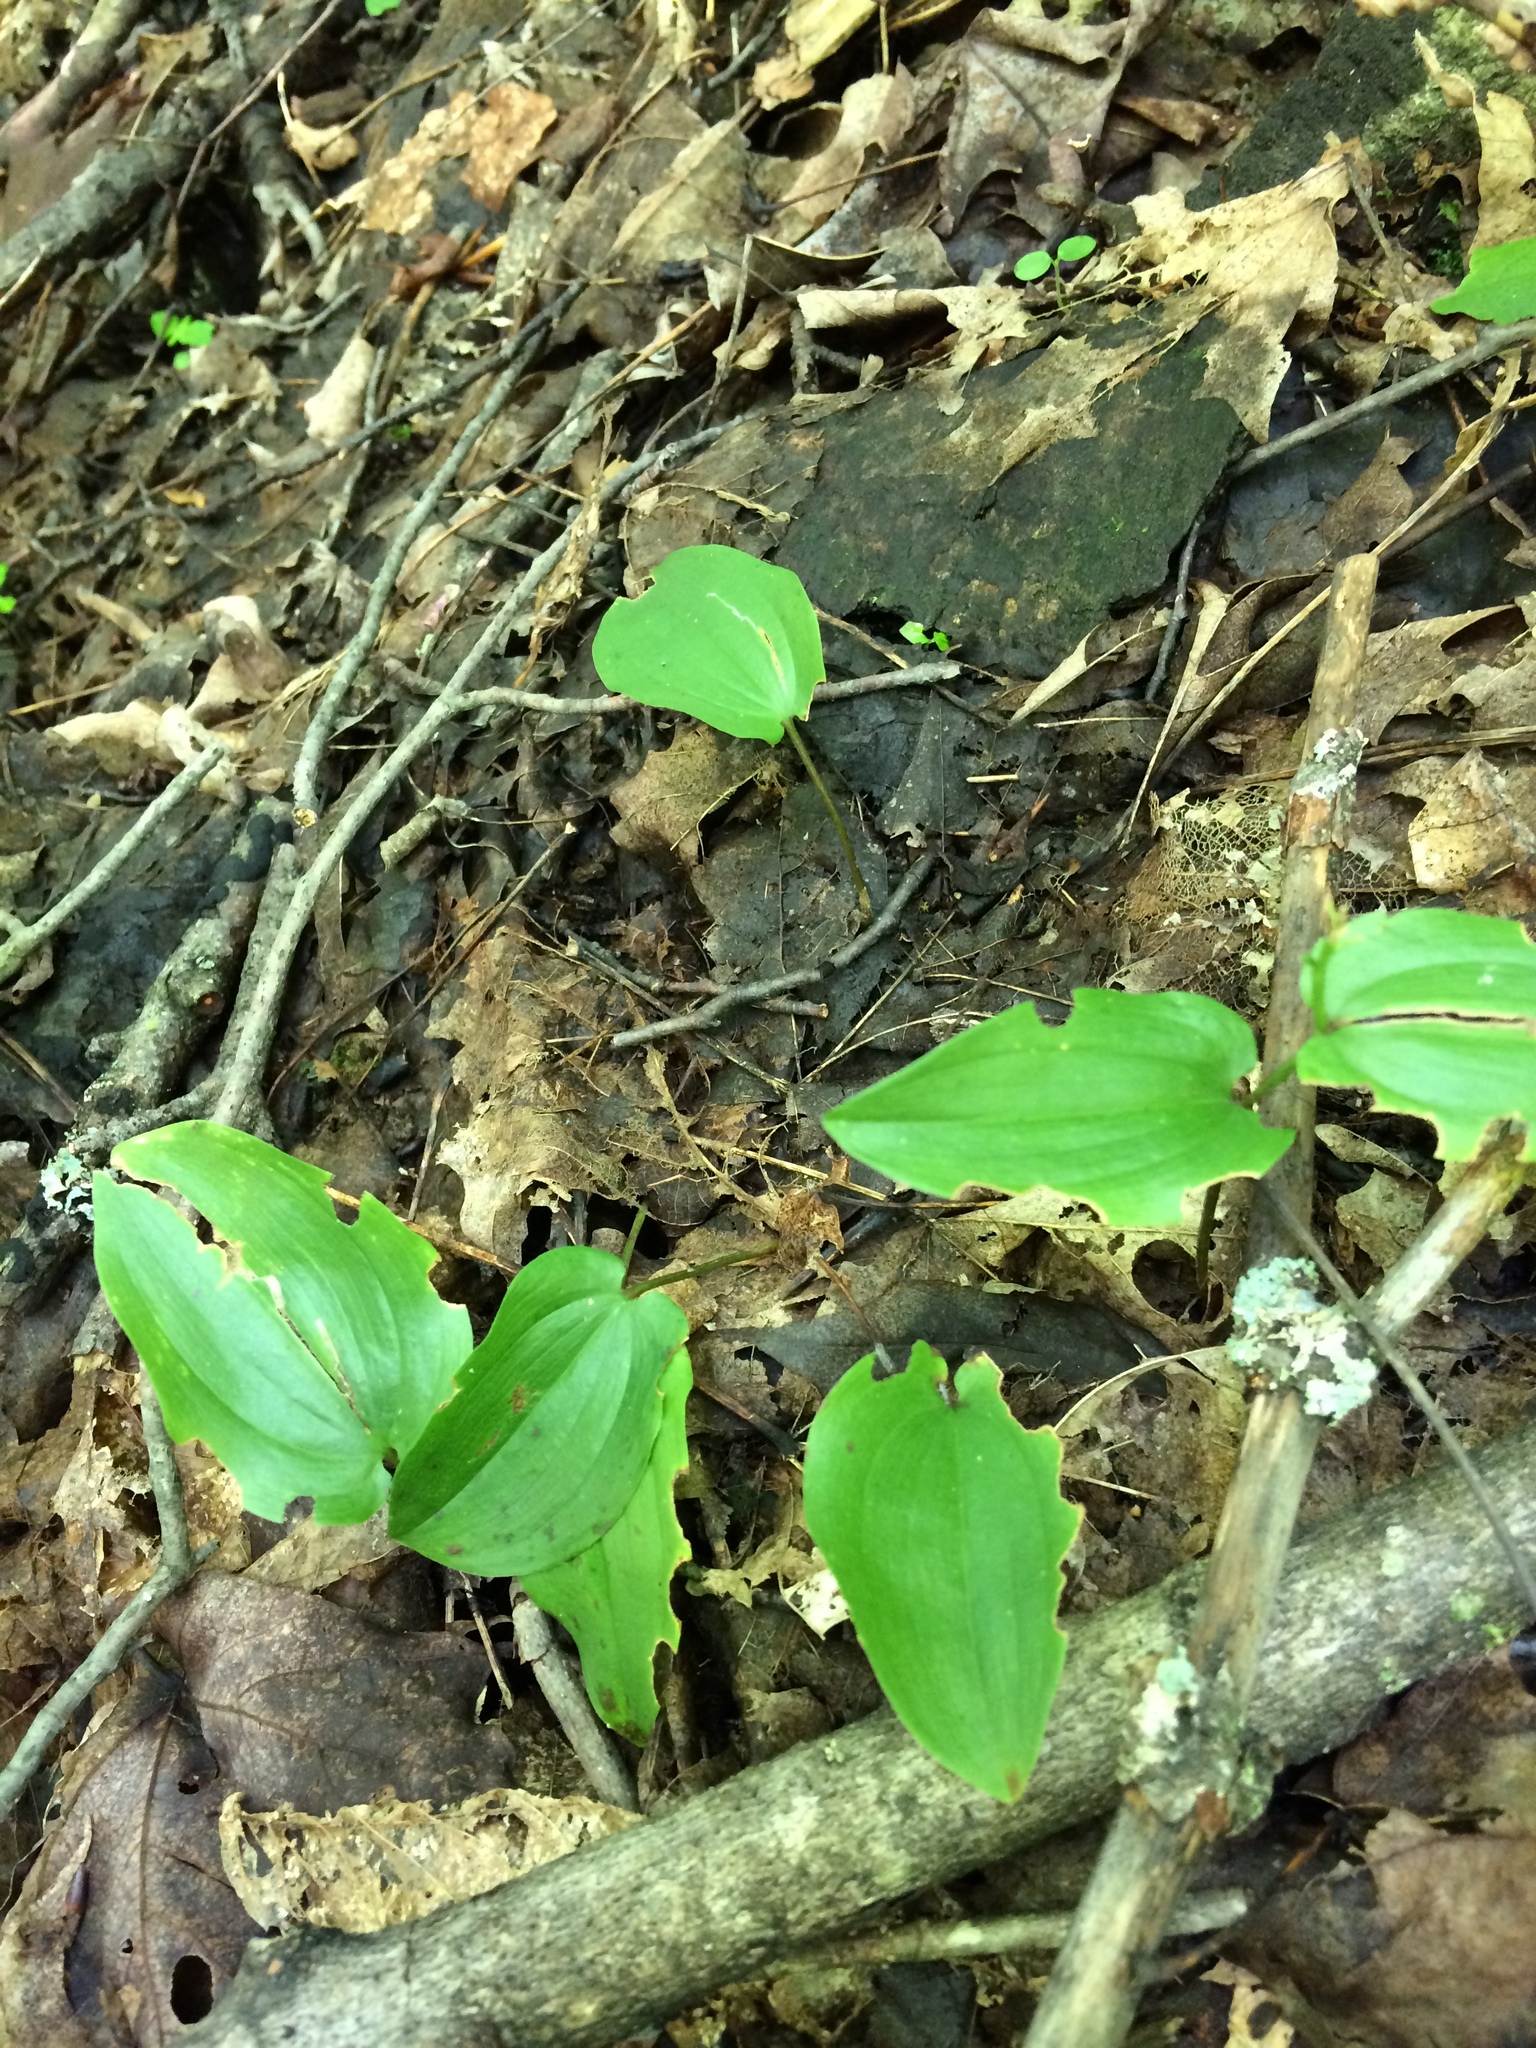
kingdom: Plantae
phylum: Tracheophyta
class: Liliopsida
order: Asparagales
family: Asparagaceae
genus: Maianthemum
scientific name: Maianthemum canadense
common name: False lily-of-the-valley
